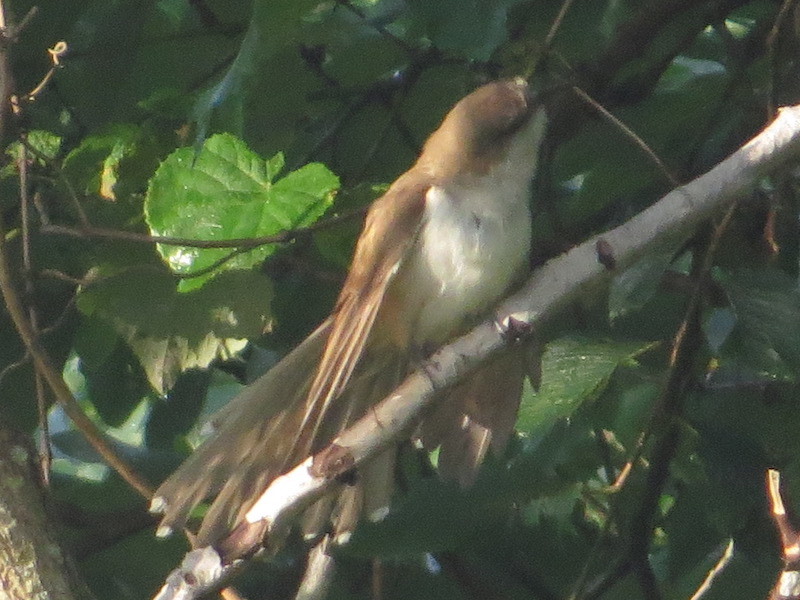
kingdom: Animalia
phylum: Chordata
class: Aves
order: Cuculiformes
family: Cuculidae
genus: Coccyzus
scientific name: Coccyzus erythropthalmus
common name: Black-billed cuckoo
